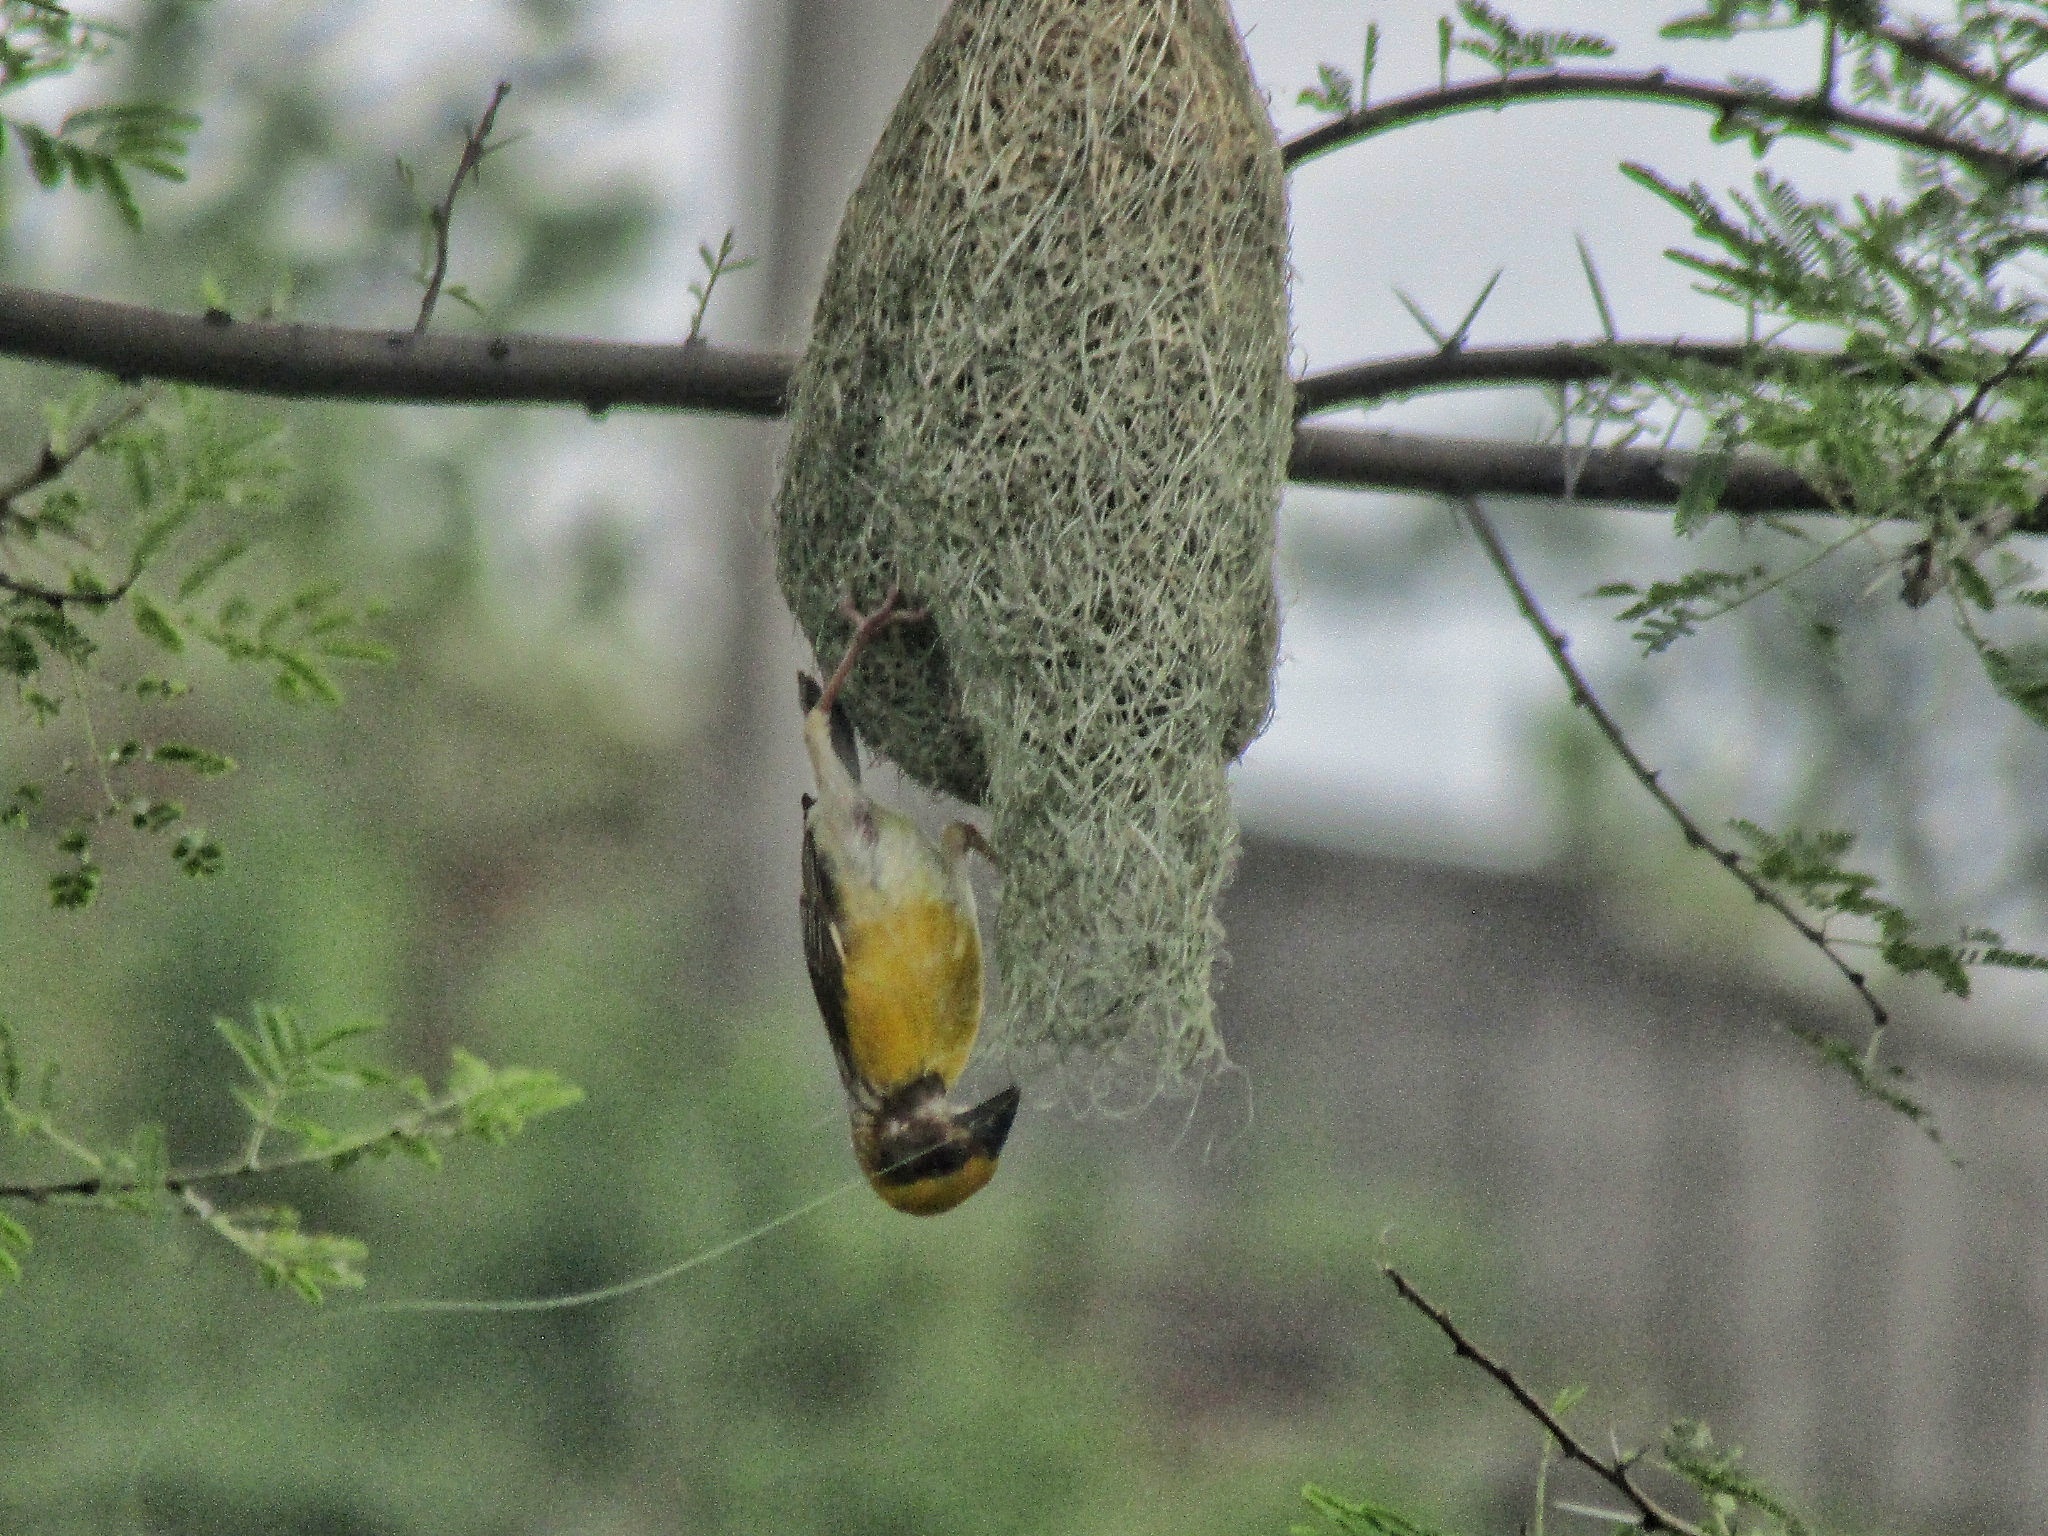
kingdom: Animalia
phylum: Chordata
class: Aves
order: Passeriformes
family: Ploceidae
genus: Ploceus
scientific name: Ploceus philippinus
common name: Baya weaver
